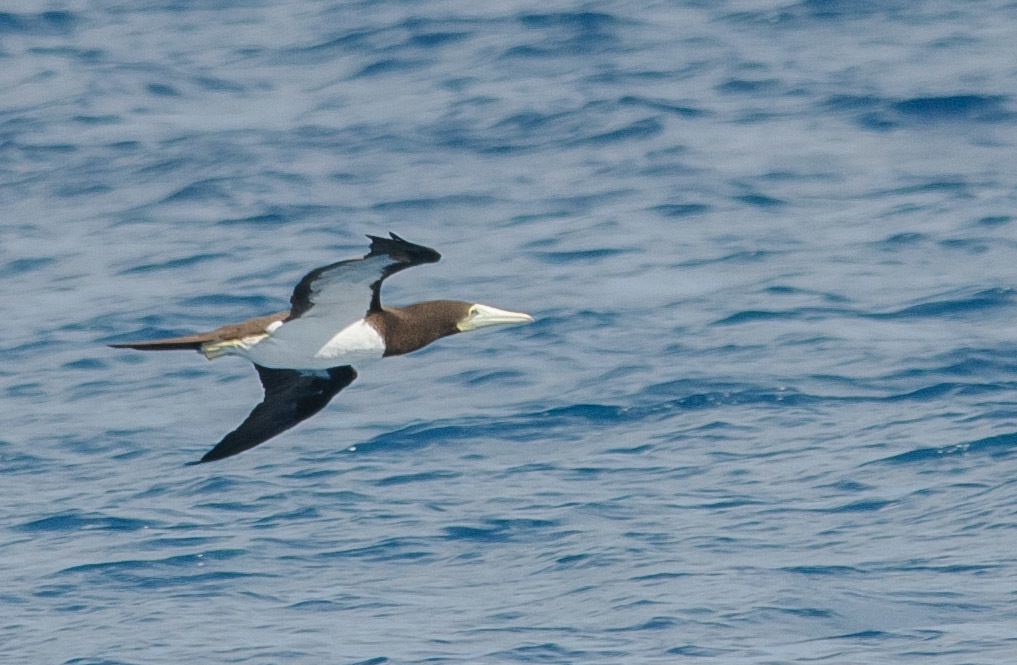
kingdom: Animalia
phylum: Chordata
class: Aves
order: Suliformes
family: Sulidae
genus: Sula
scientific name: Sula leucogaster
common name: Brown booby
